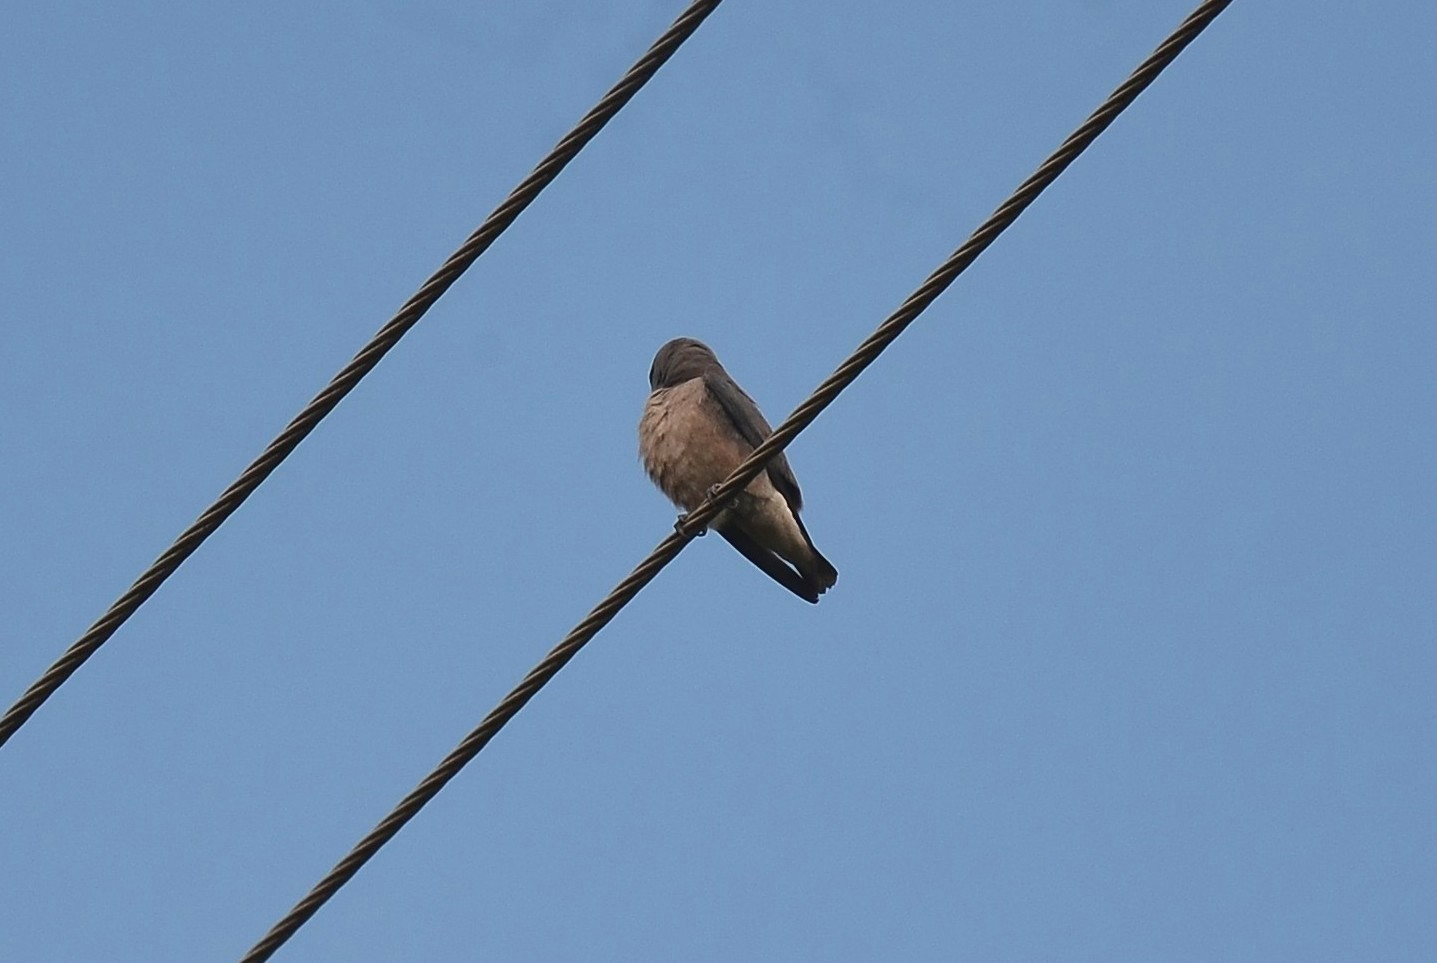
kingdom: Animalia
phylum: Chordata
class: Aves
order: Passeriformes
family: Artamidae
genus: Artamus
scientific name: Artamus fuscus
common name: Ashy woodswallow
